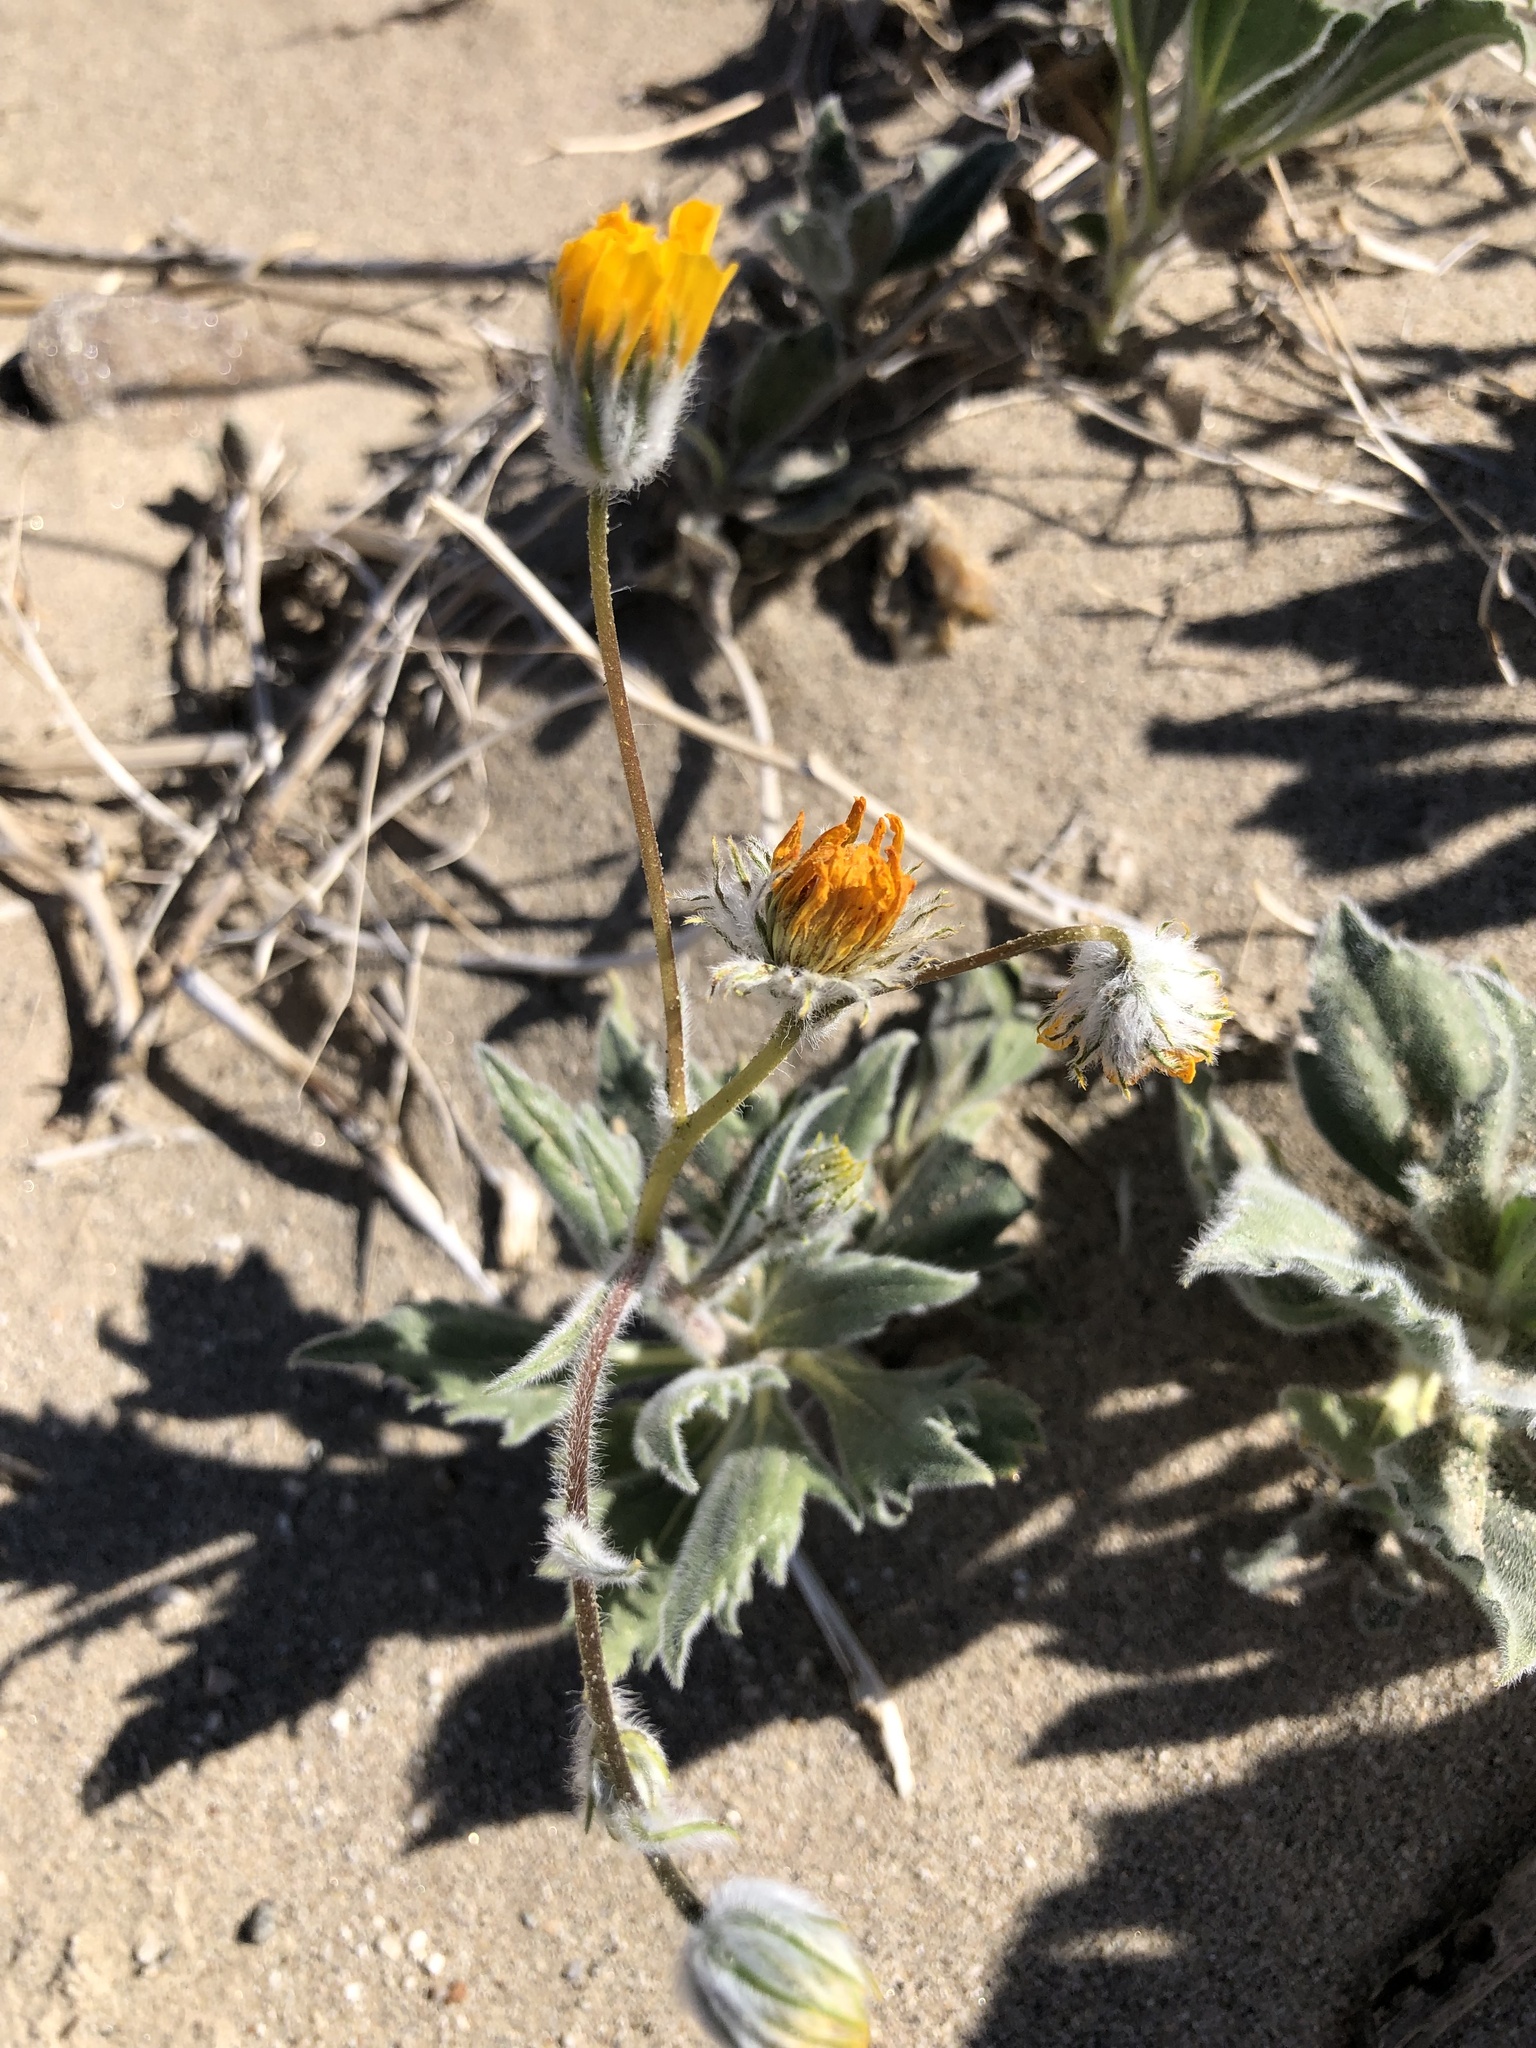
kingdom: Plantae
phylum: Tracheophyta
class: Magnoliopsida
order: Asterales
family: Asteraceae
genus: Geraea
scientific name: Geraea canescens
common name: Desert-gold
